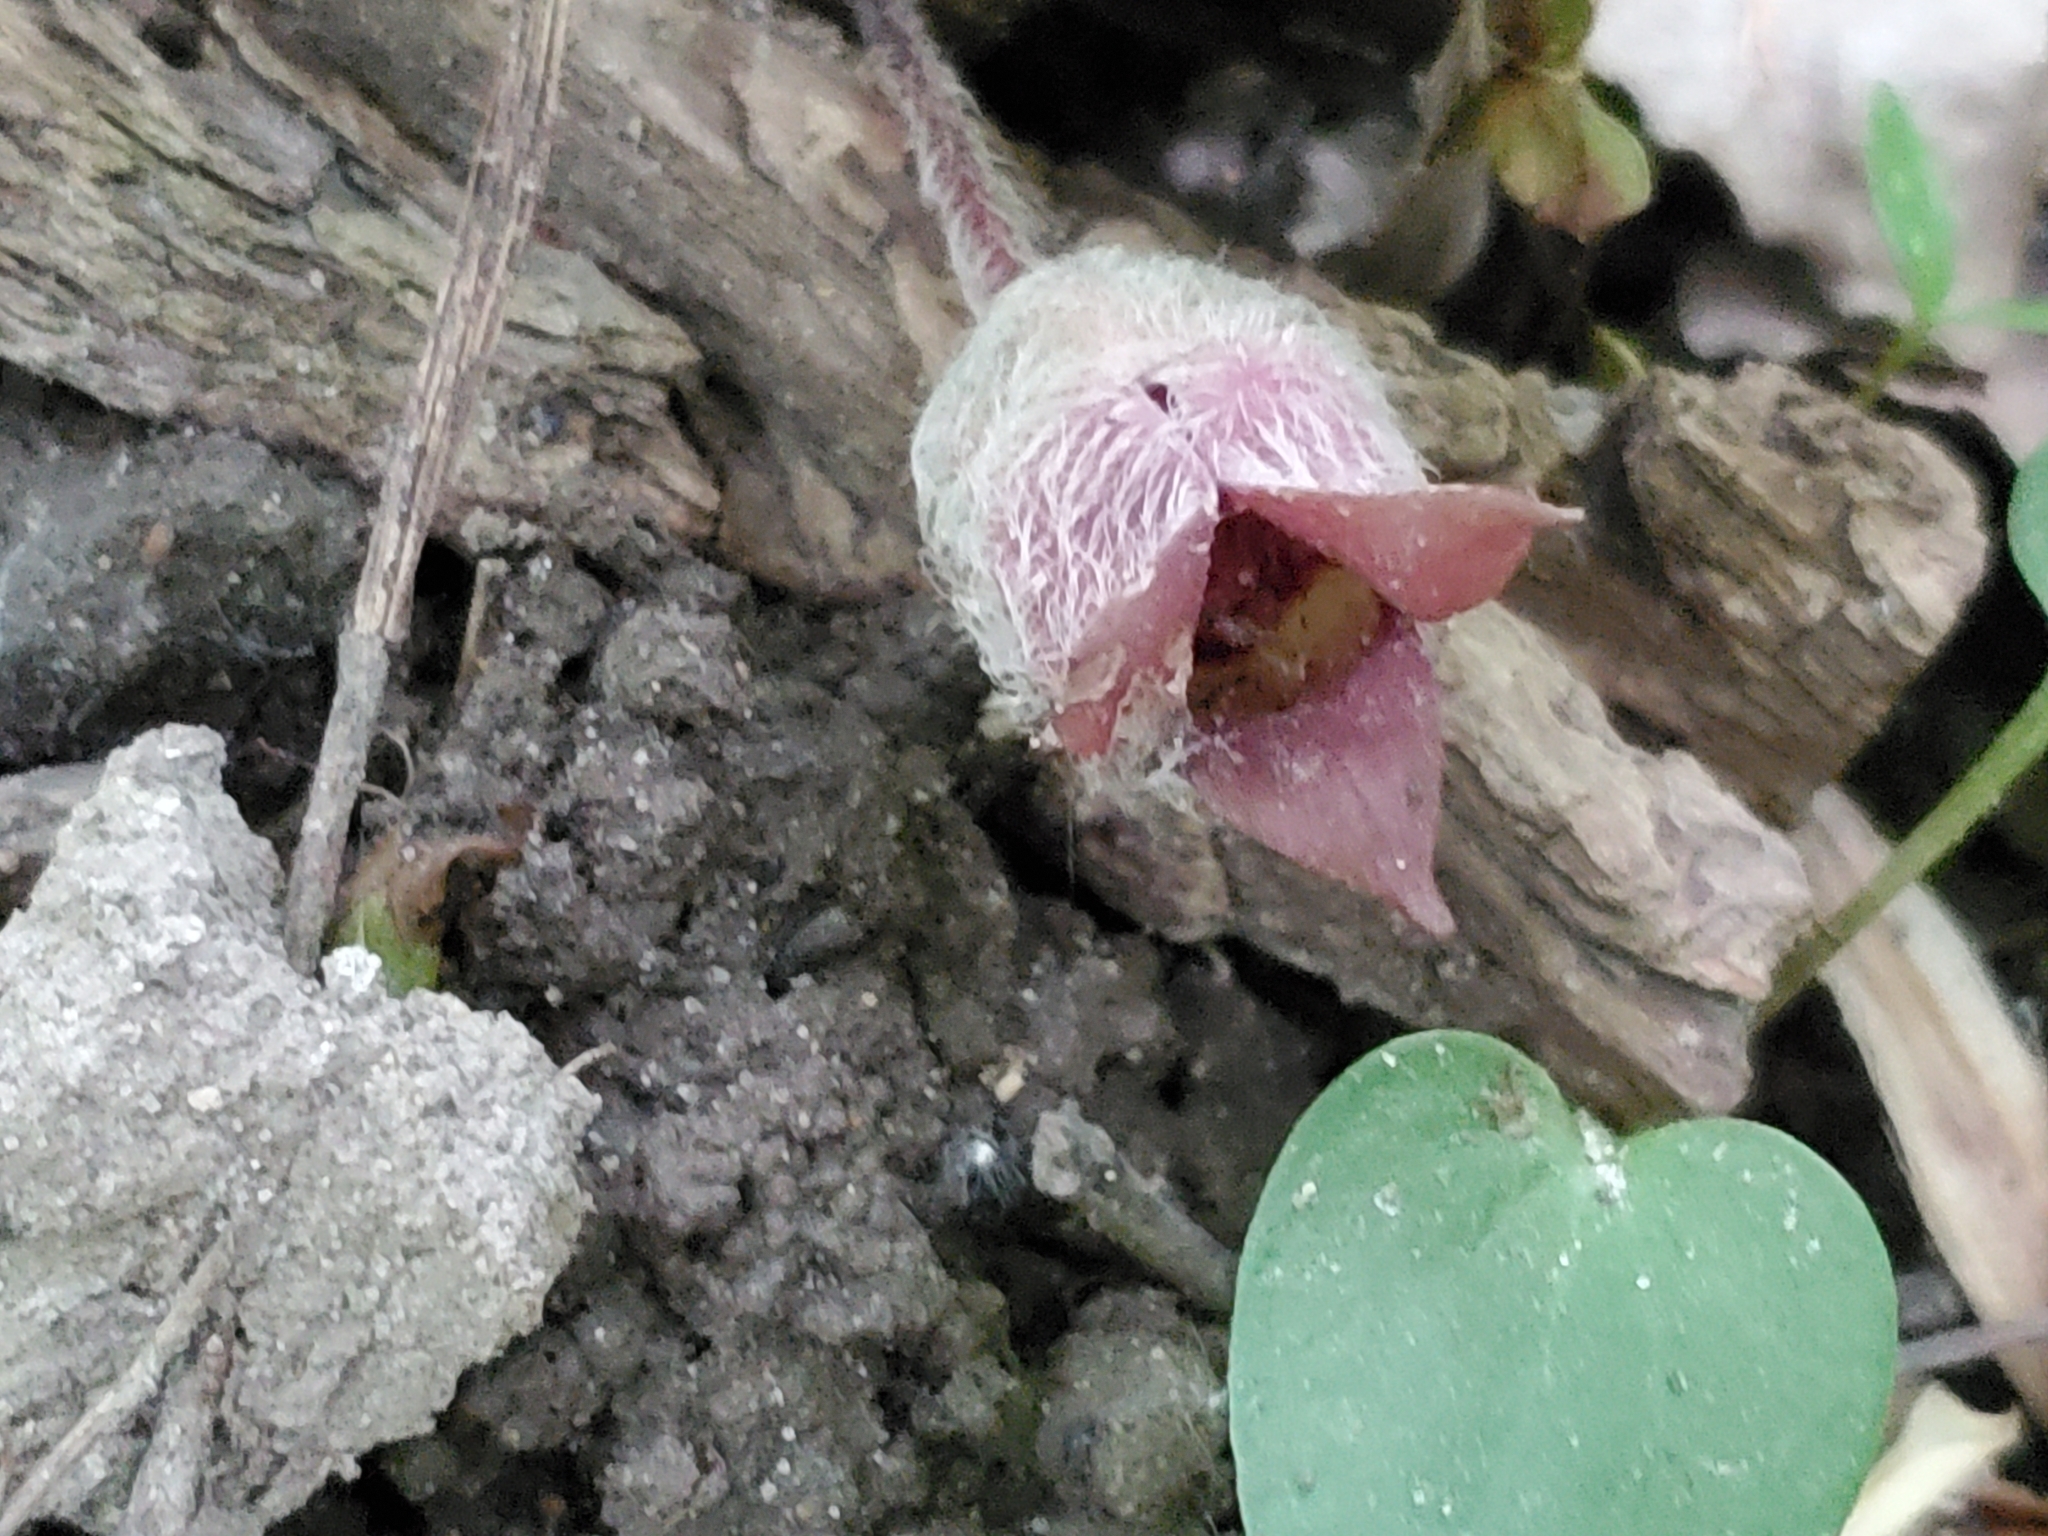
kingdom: Plantae
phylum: Tracheophyta
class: Magnoliopsida
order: Piperales
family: Aristolochiaceae
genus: Asarum
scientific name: Asarum canadense
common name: Wild ginger
